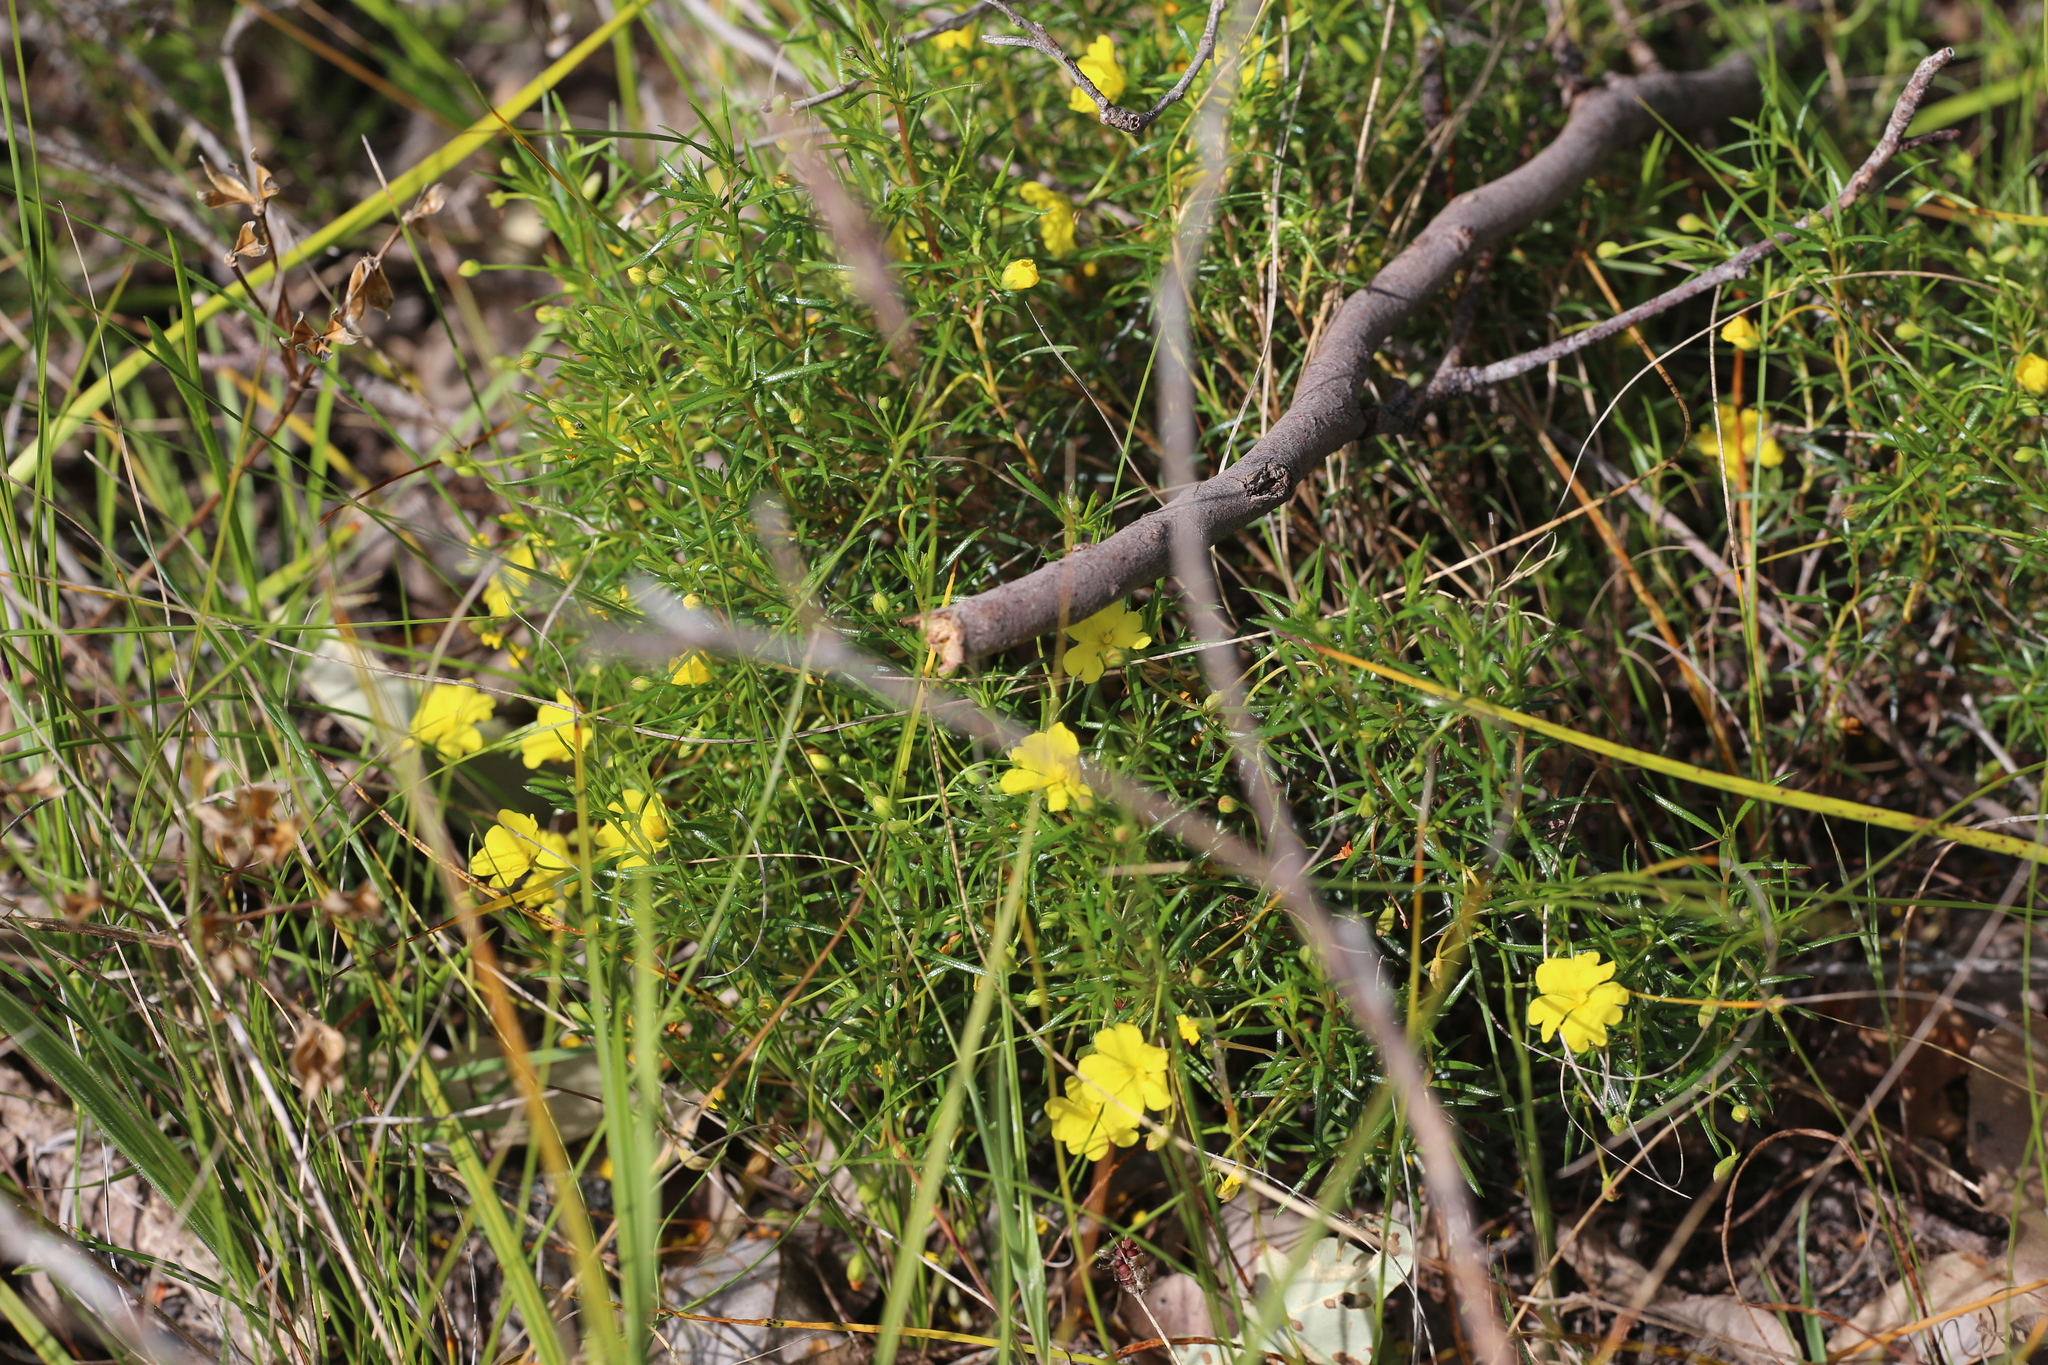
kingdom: Plantae
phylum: Tracheophyta
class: Magnoliopsida
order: Dilleniales
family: Dilleniaceae
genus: Hibbertia
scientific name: Hibbertia acerosa
